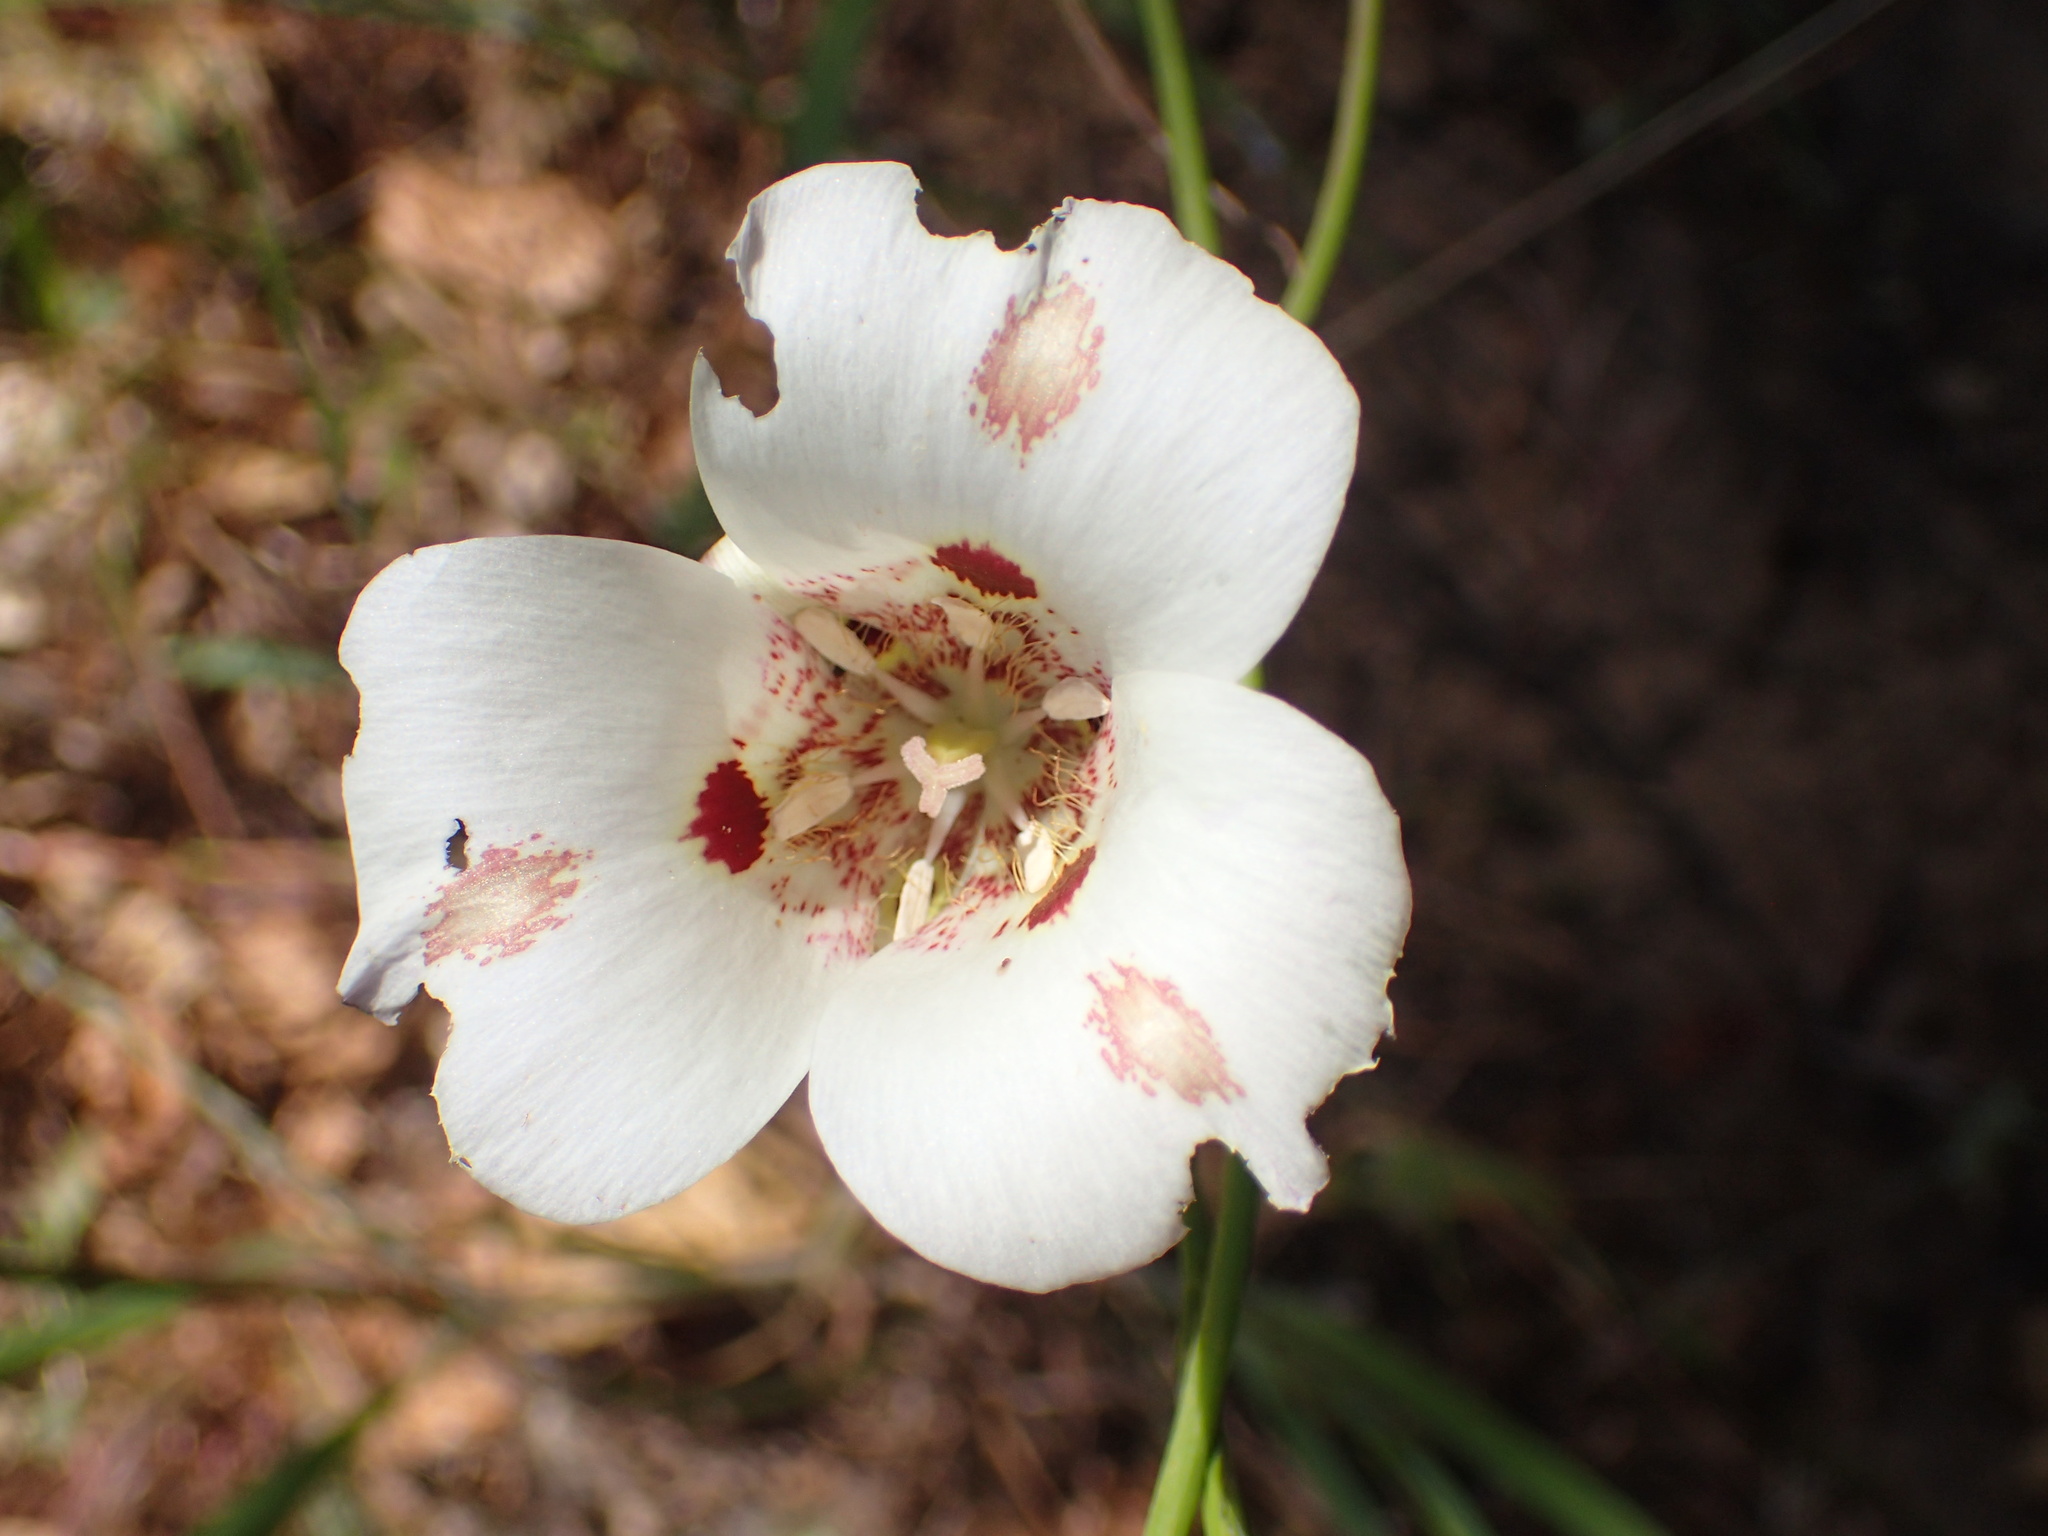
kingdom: Plantae
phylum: Tracheophyta
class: Liliopsida
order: Liliales
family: Liliaceae
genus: Calochortus
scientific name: Calochortus venustus
